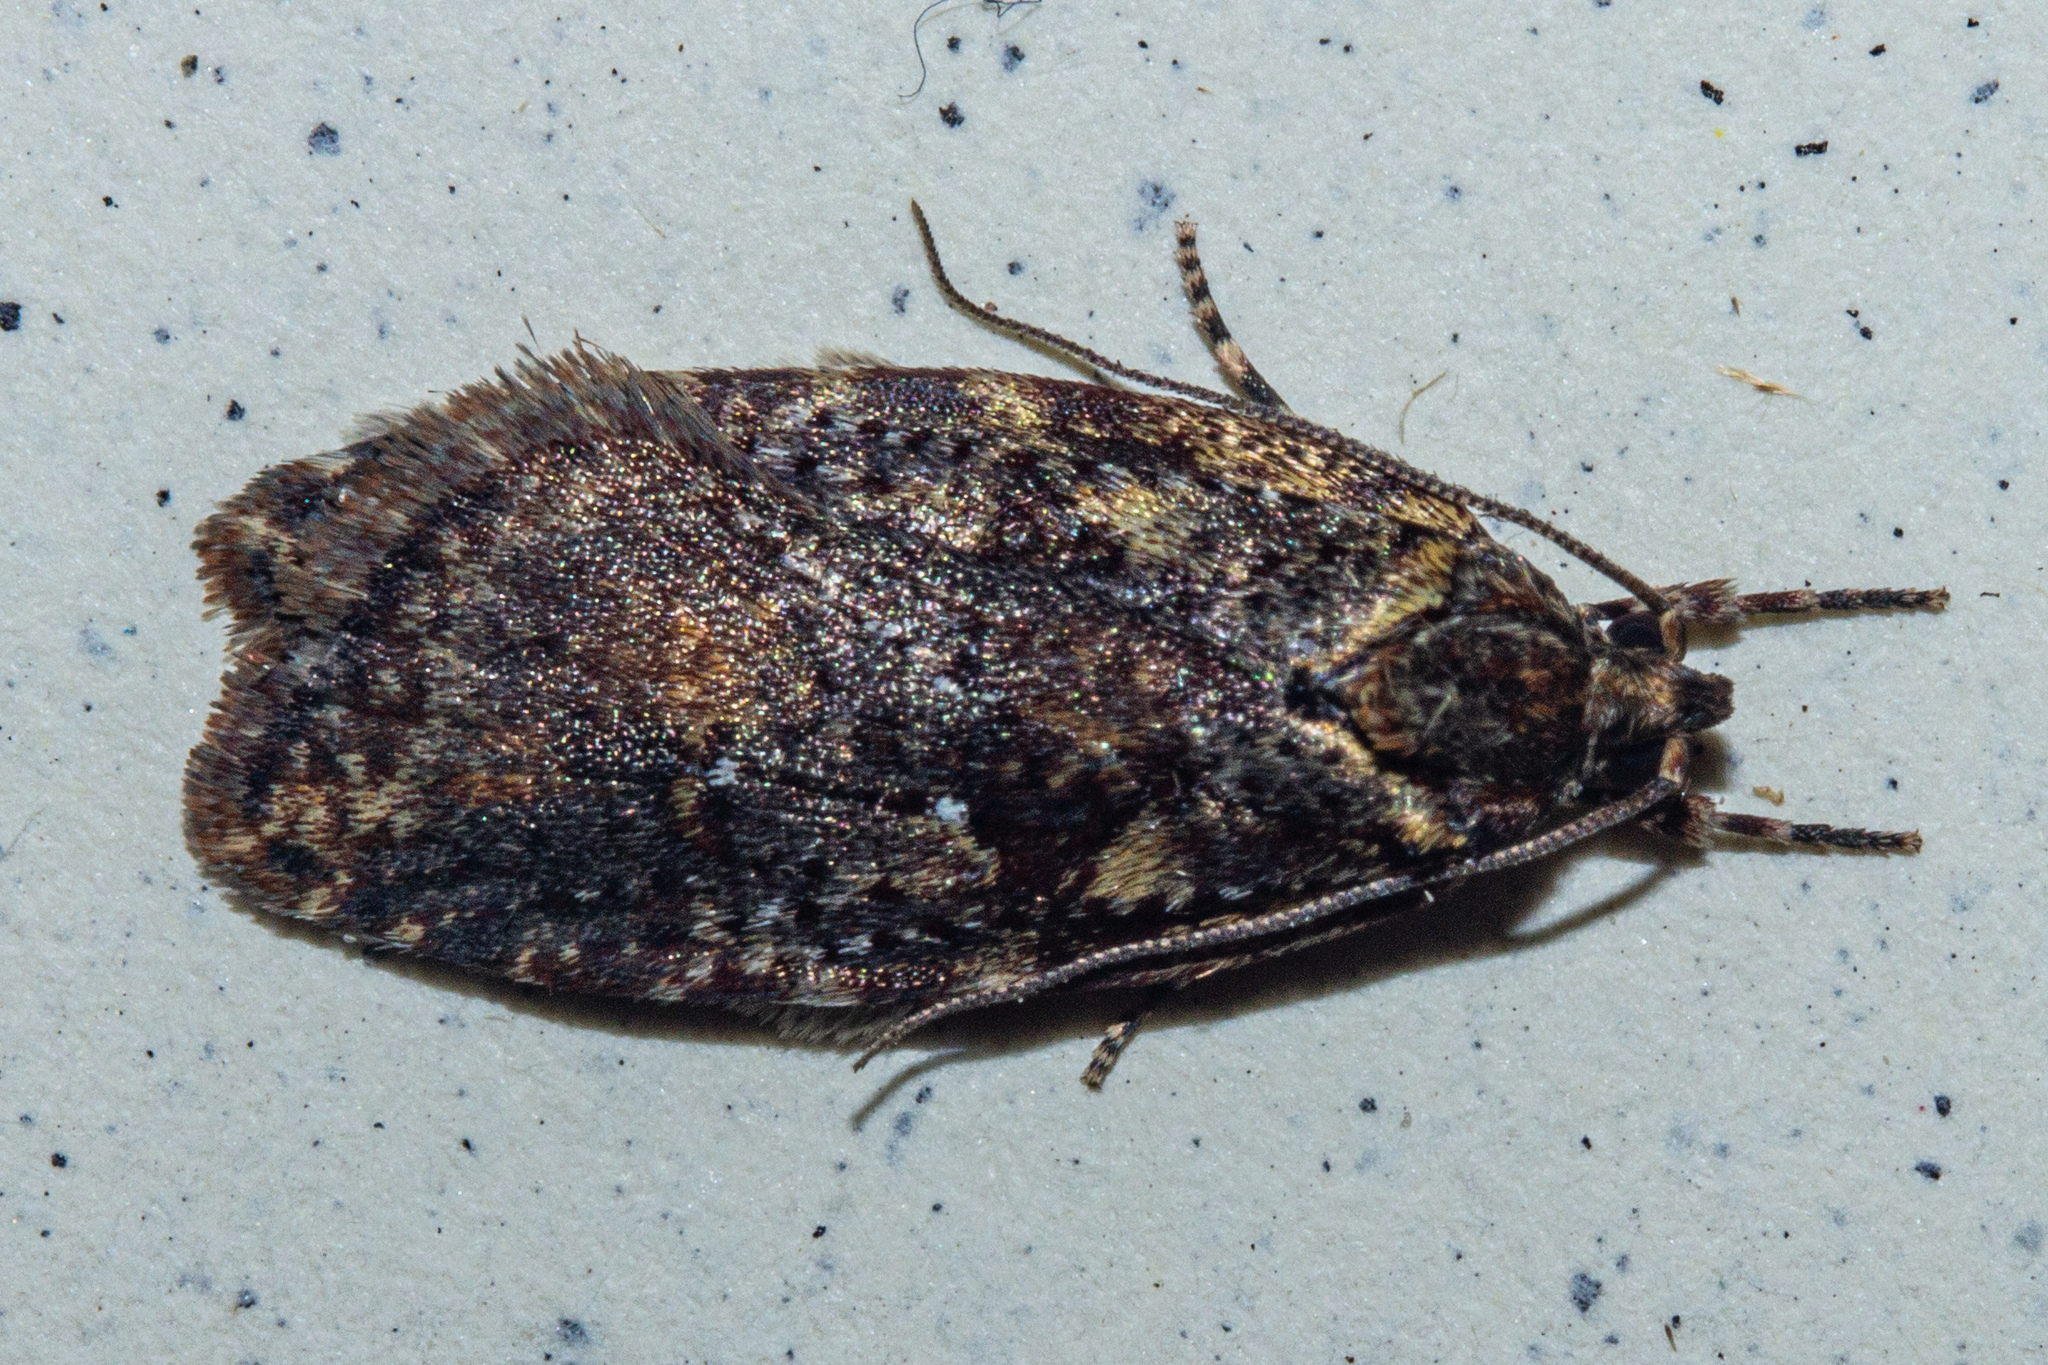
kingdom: Animalia
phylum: Arthropoda
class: Insecta
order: Lepidoptera
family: Oecophoridae
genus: Proteodes
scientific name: Proteodes profunda
